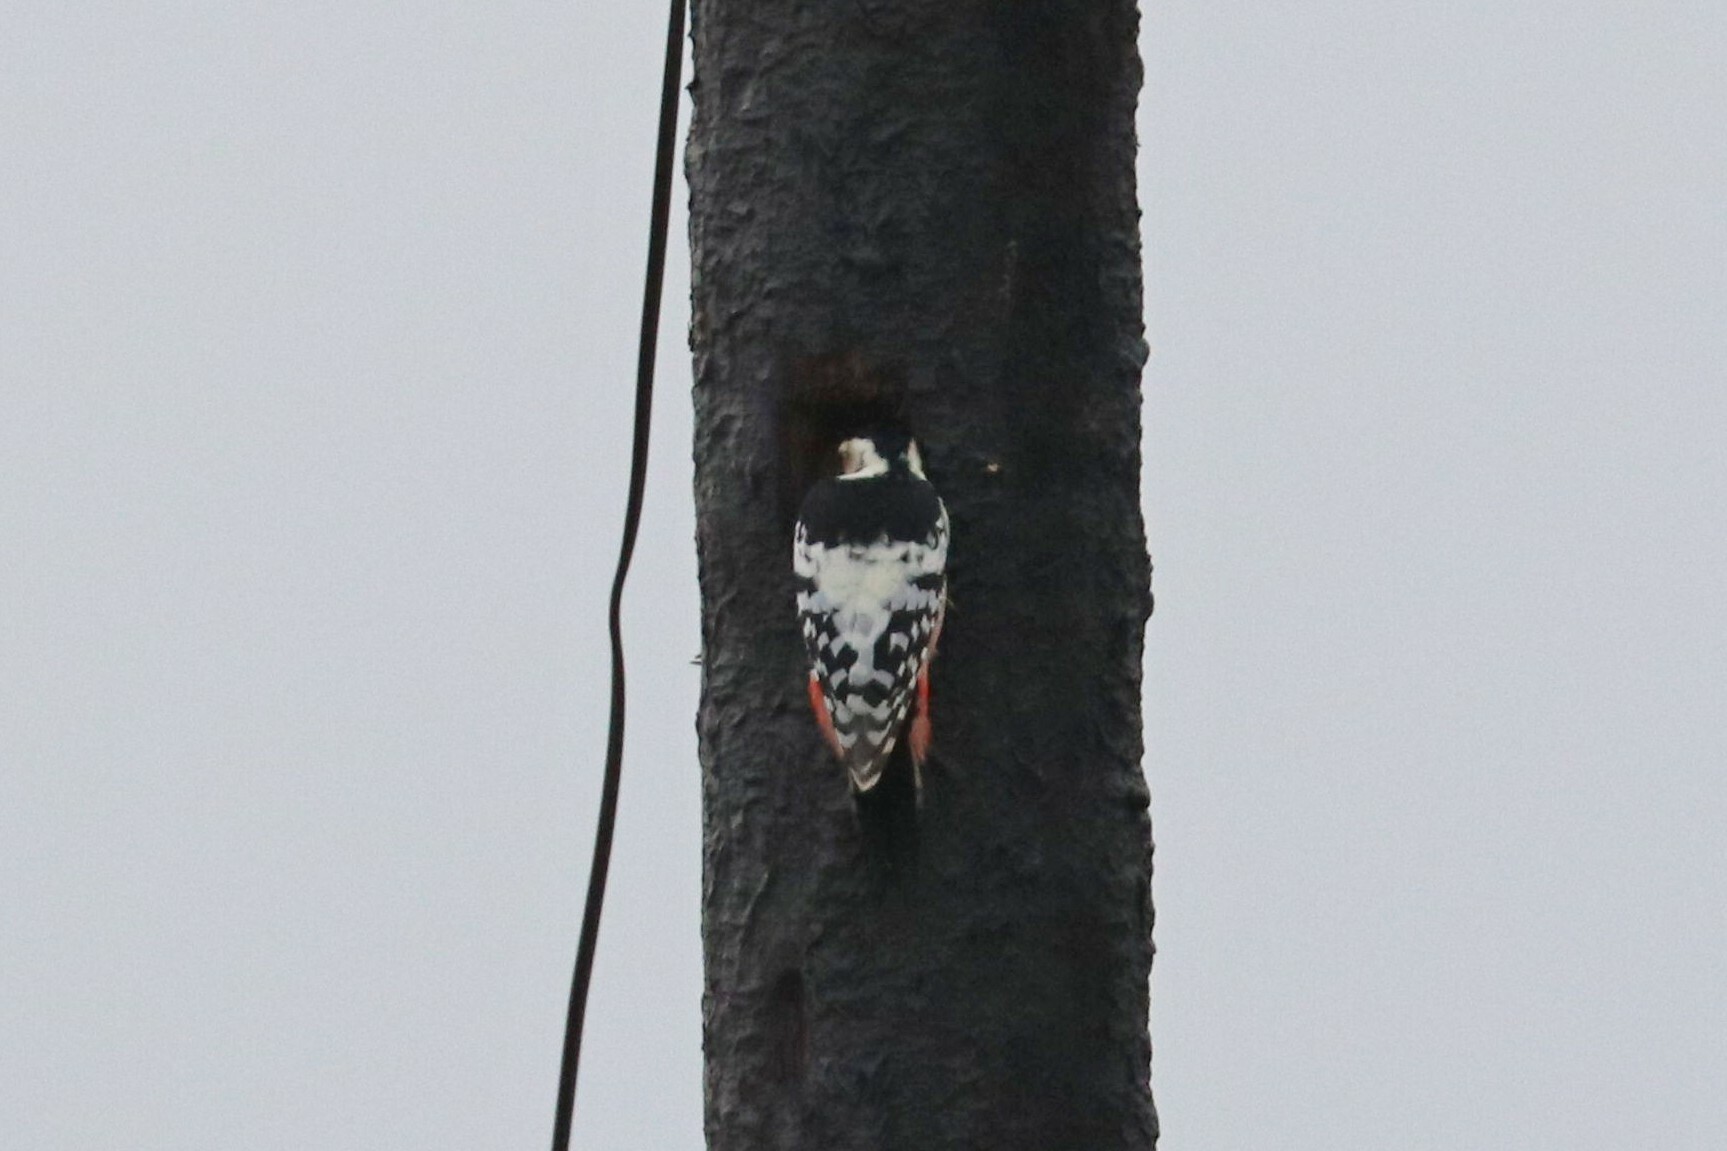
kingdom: Animalia
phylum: Chordata
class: Aves
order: Piciformes
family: Picidae
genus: Dendrocopos
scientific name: Dendrocopos leucotos
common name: White-backed woodpecker
